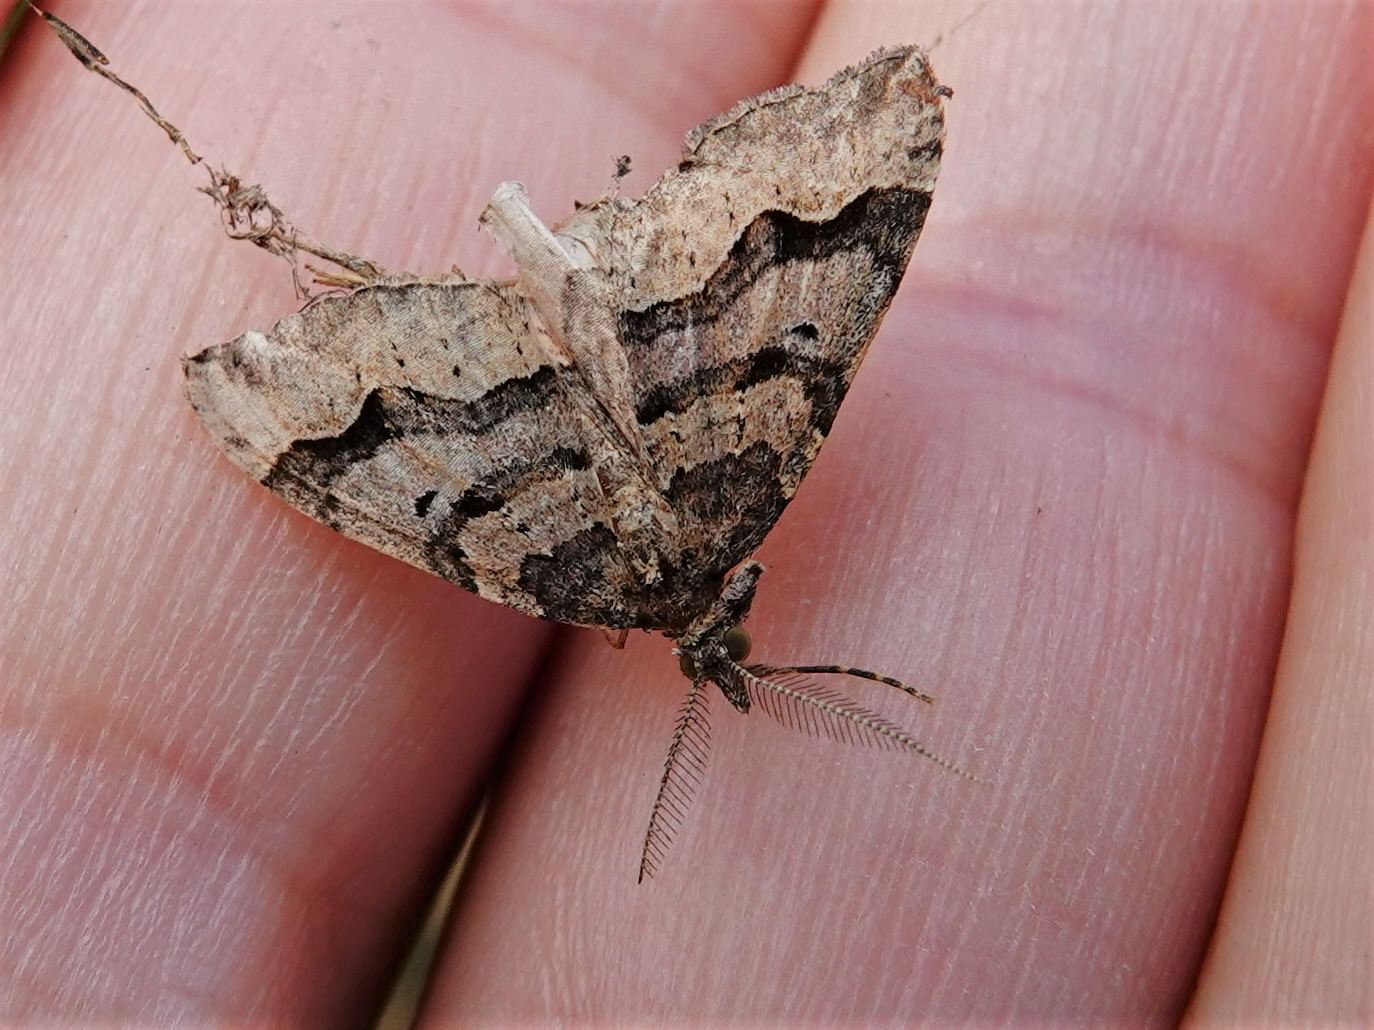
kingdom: Animalia
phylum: Arthropoda
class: Insecta
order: Lepidoptera
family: Geometridae
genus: Epyaxa
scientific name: Epyaxa rosearia
